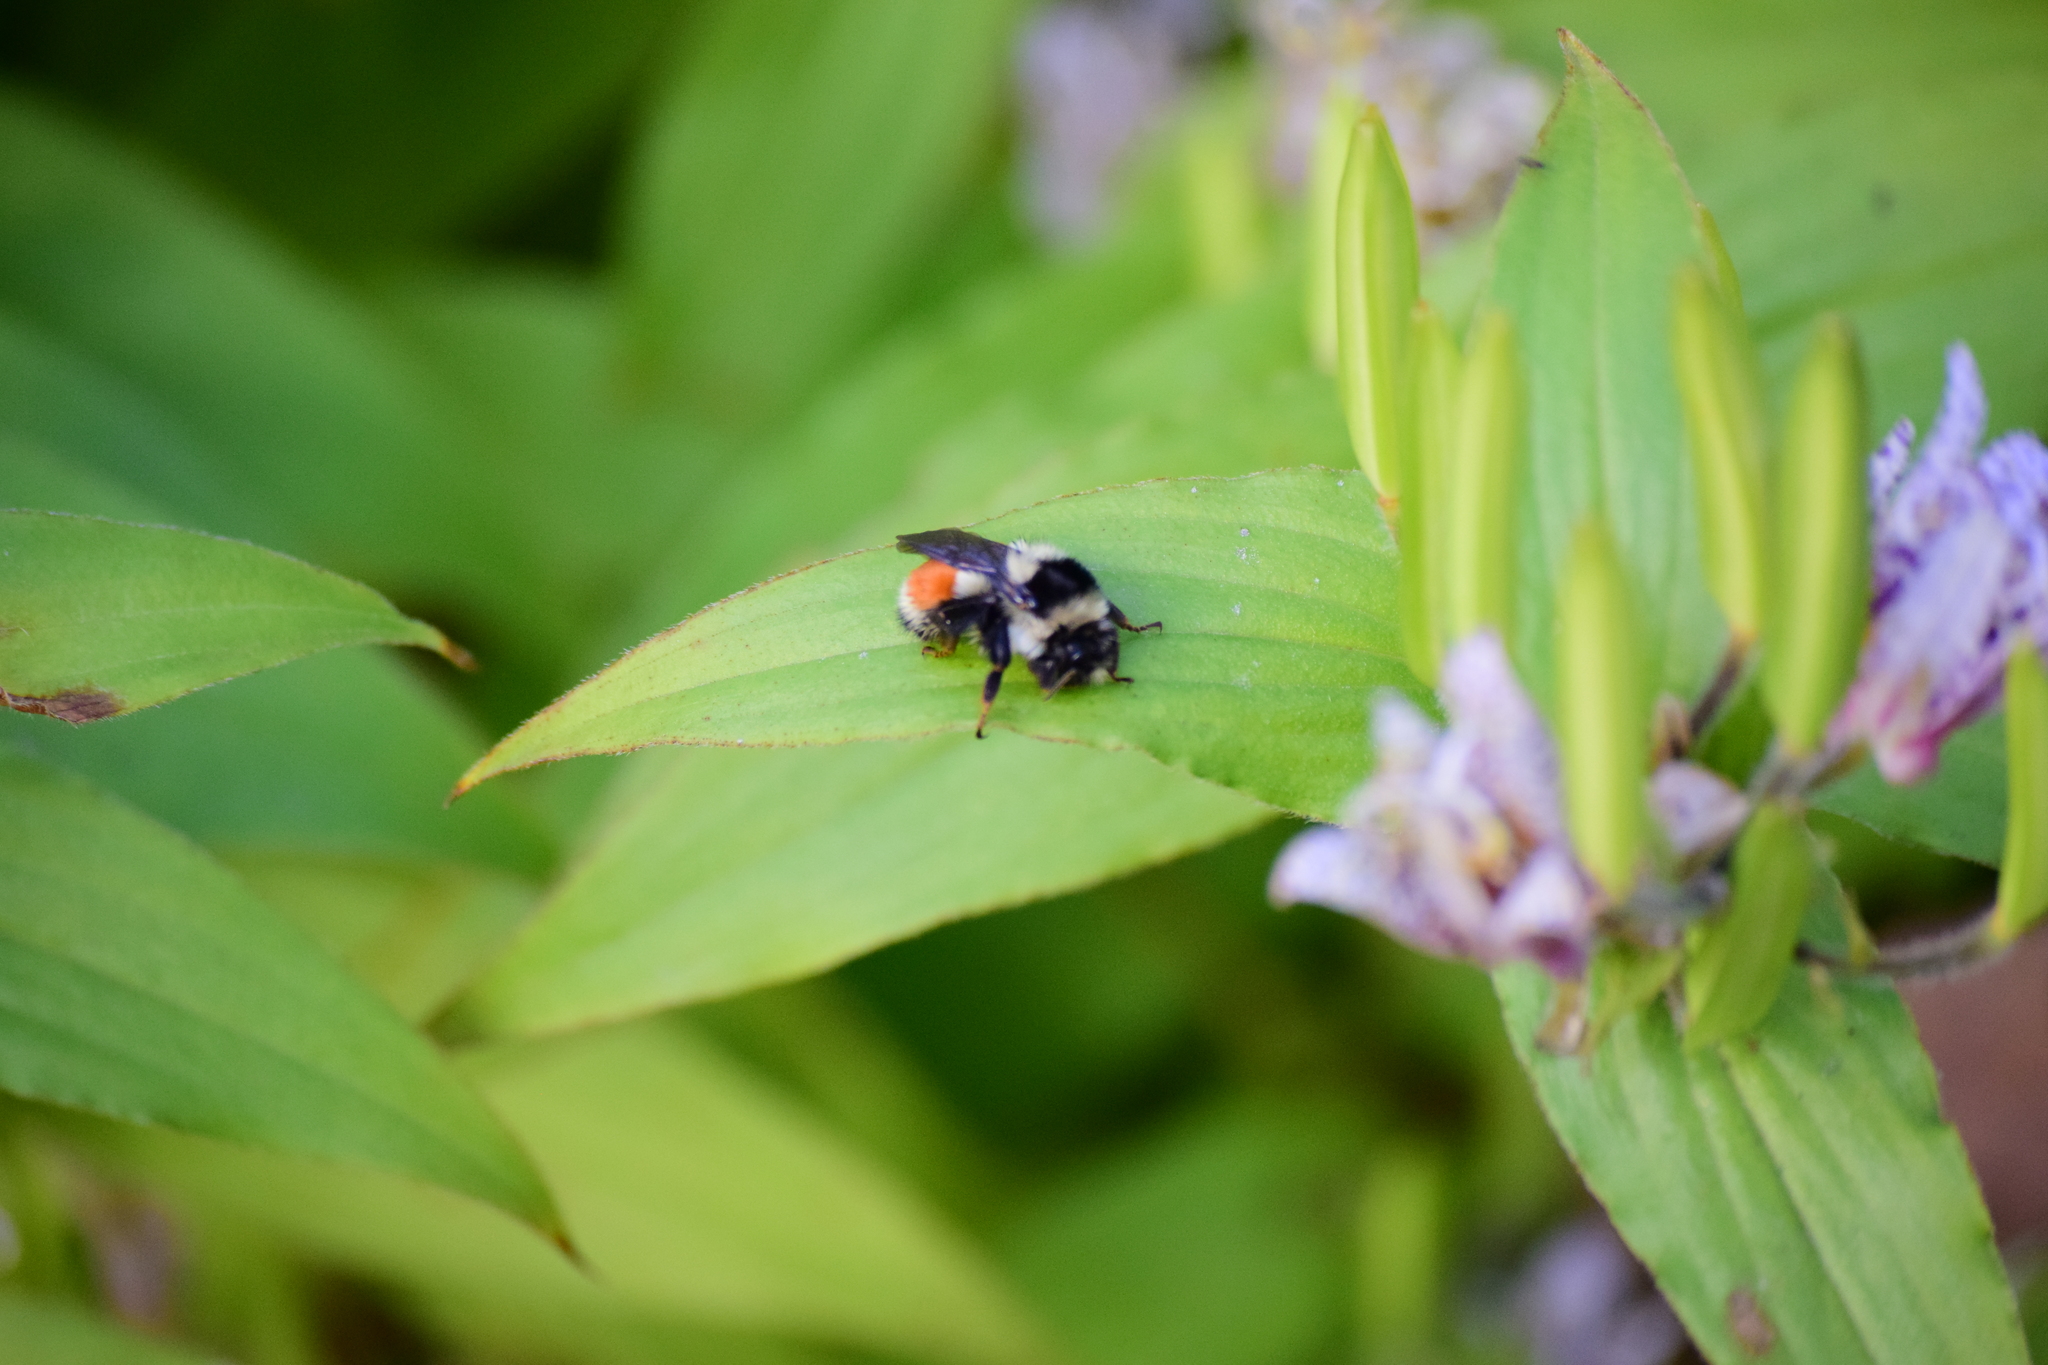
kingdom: Animalia
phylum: Arthropoda
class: Insecta
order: Hymenoptera
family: Apidae
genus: Bombus
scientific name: Bombus ternarius
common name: Tri-colored bumble bee
